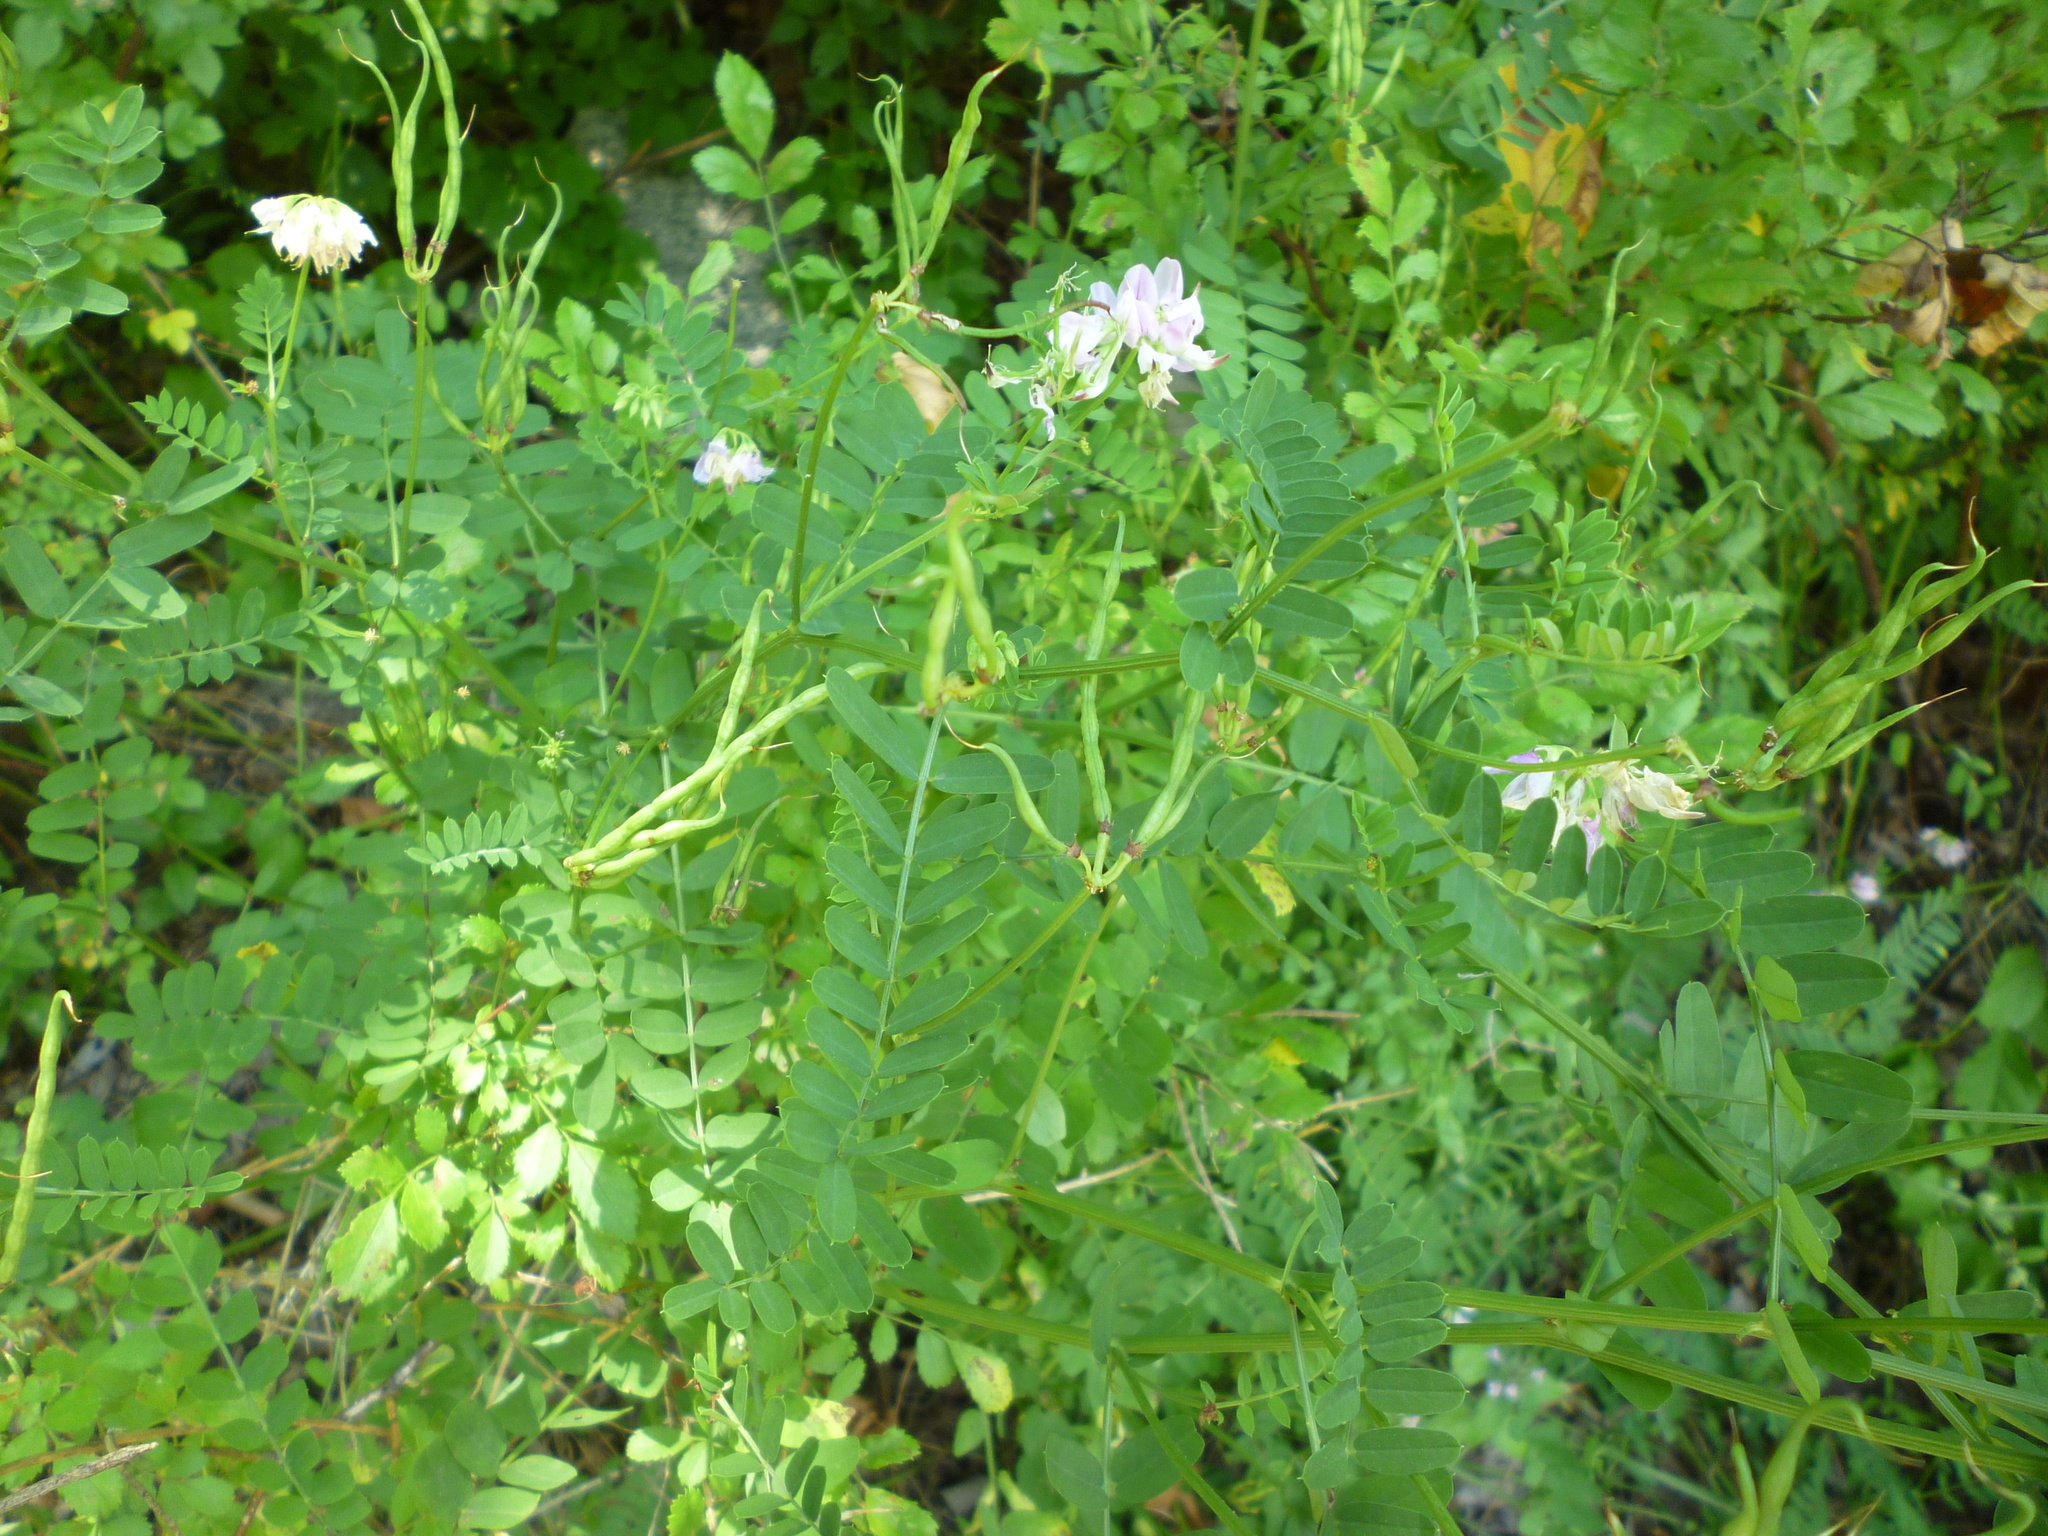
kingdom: Plantae
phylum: Tracheophyta
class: Magnoliopsida
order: Fabales
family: Fabaceae
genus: Coronilla
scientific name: Coronilla varia
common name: Crownvetch
